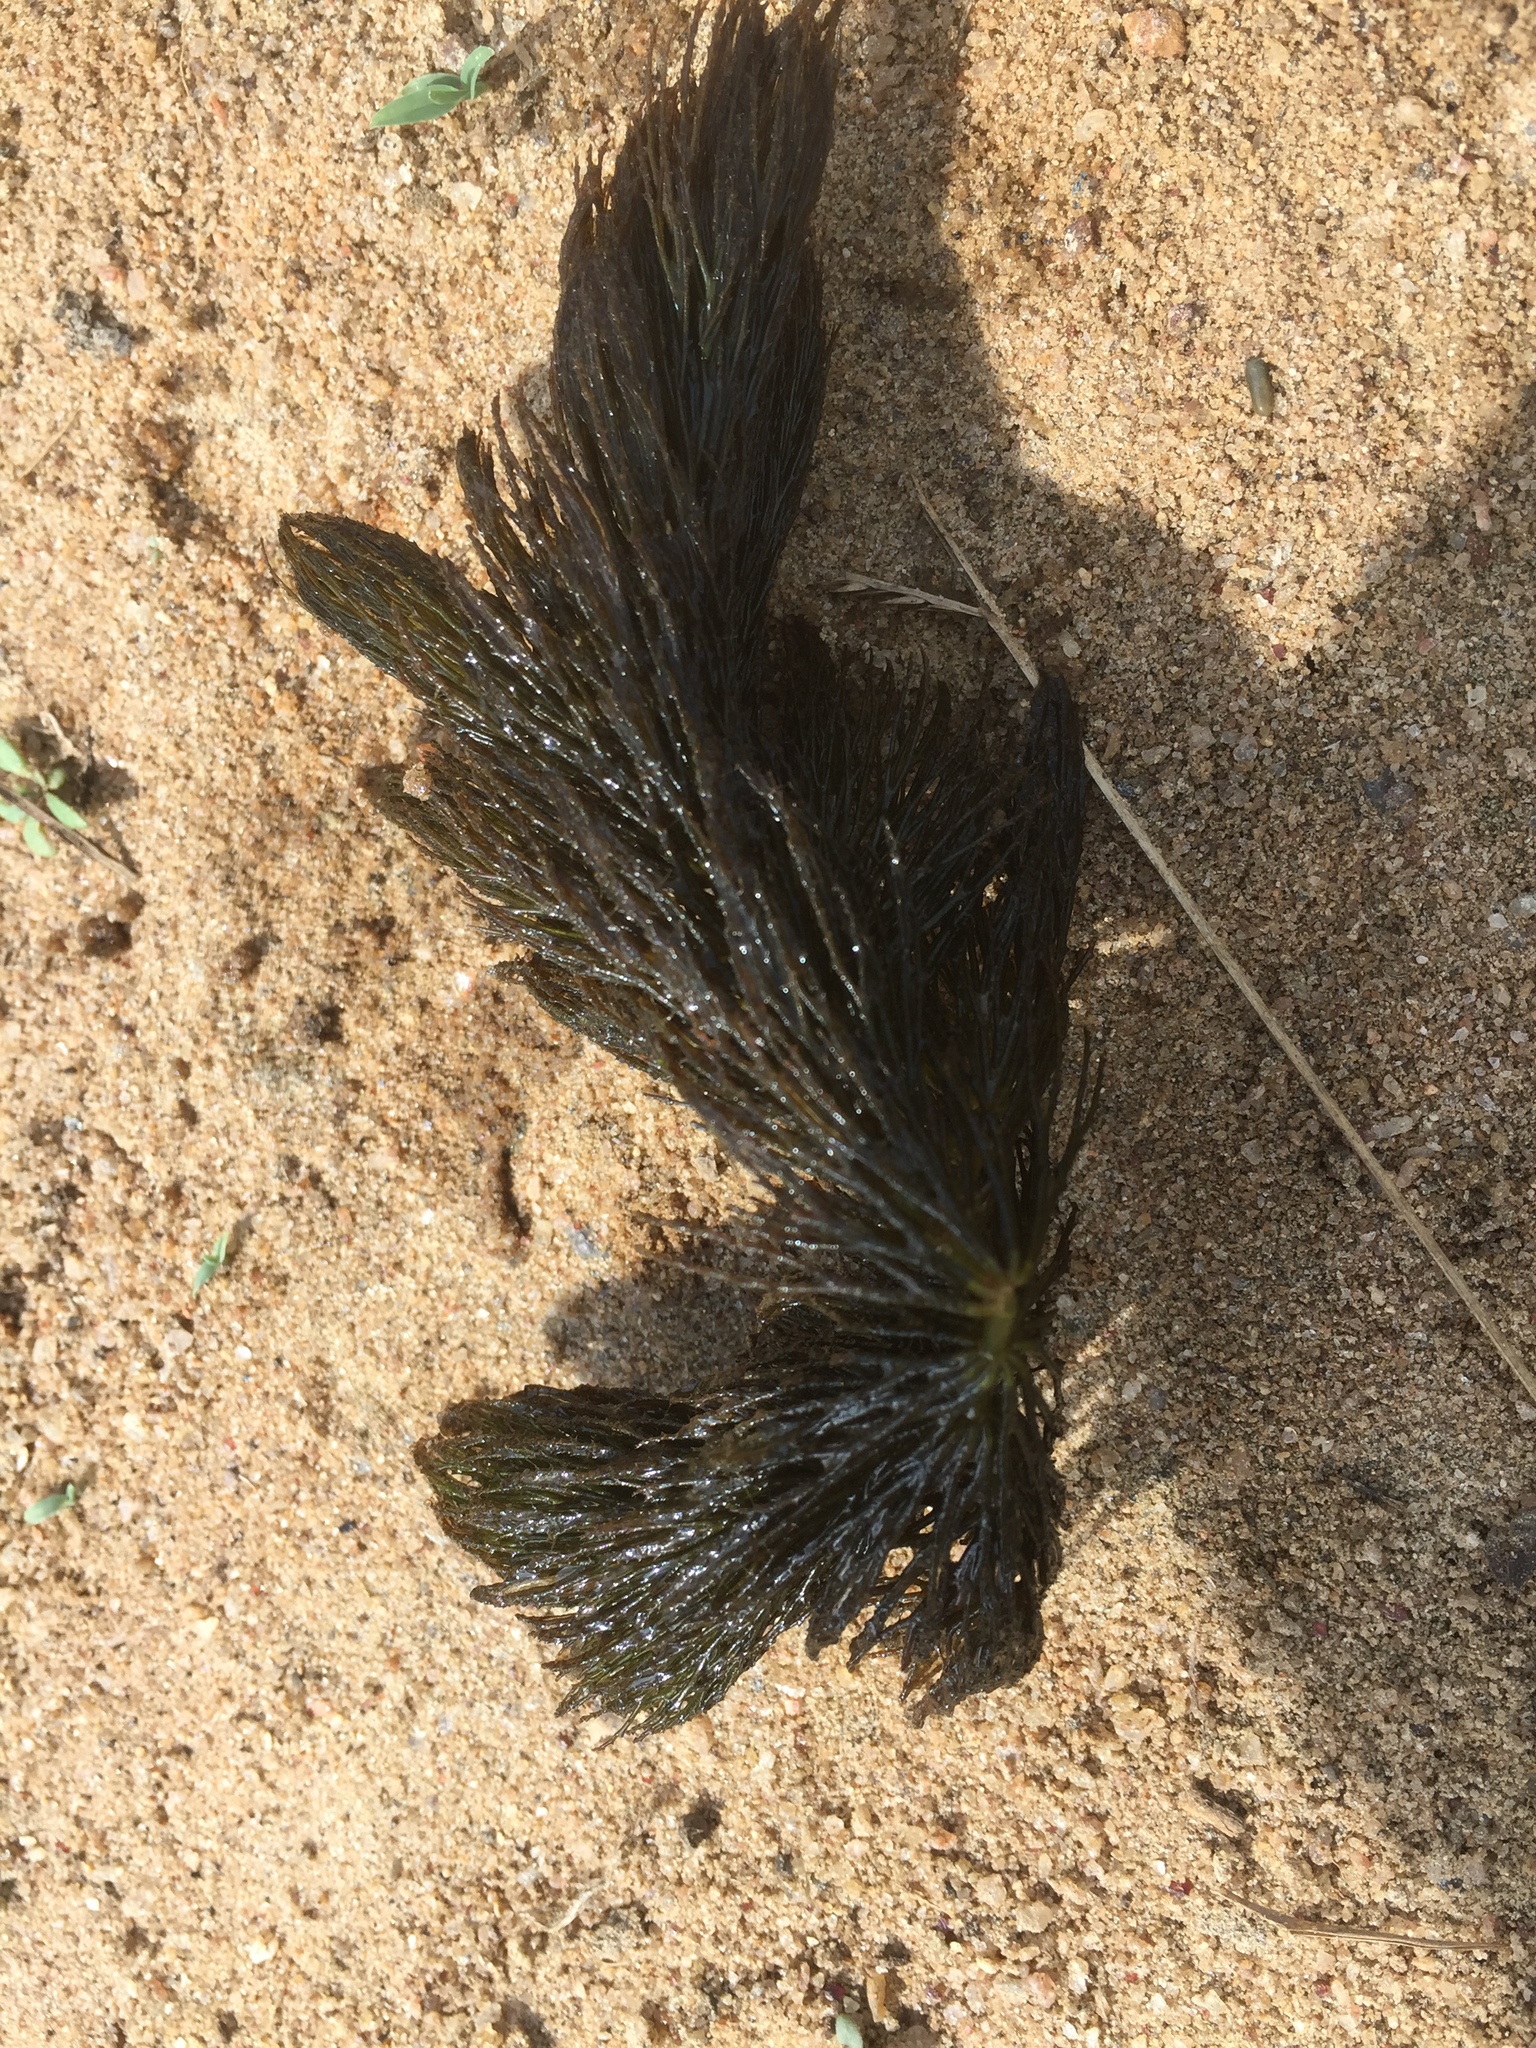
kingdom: Plantae
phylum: Tracheophyta
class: Magnoliopsida
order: Ceratophyllales
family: Ceratophyllaceae
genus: Ceratophyllum
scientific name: Ceratophyllum demersum
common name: Rigid hornwort
